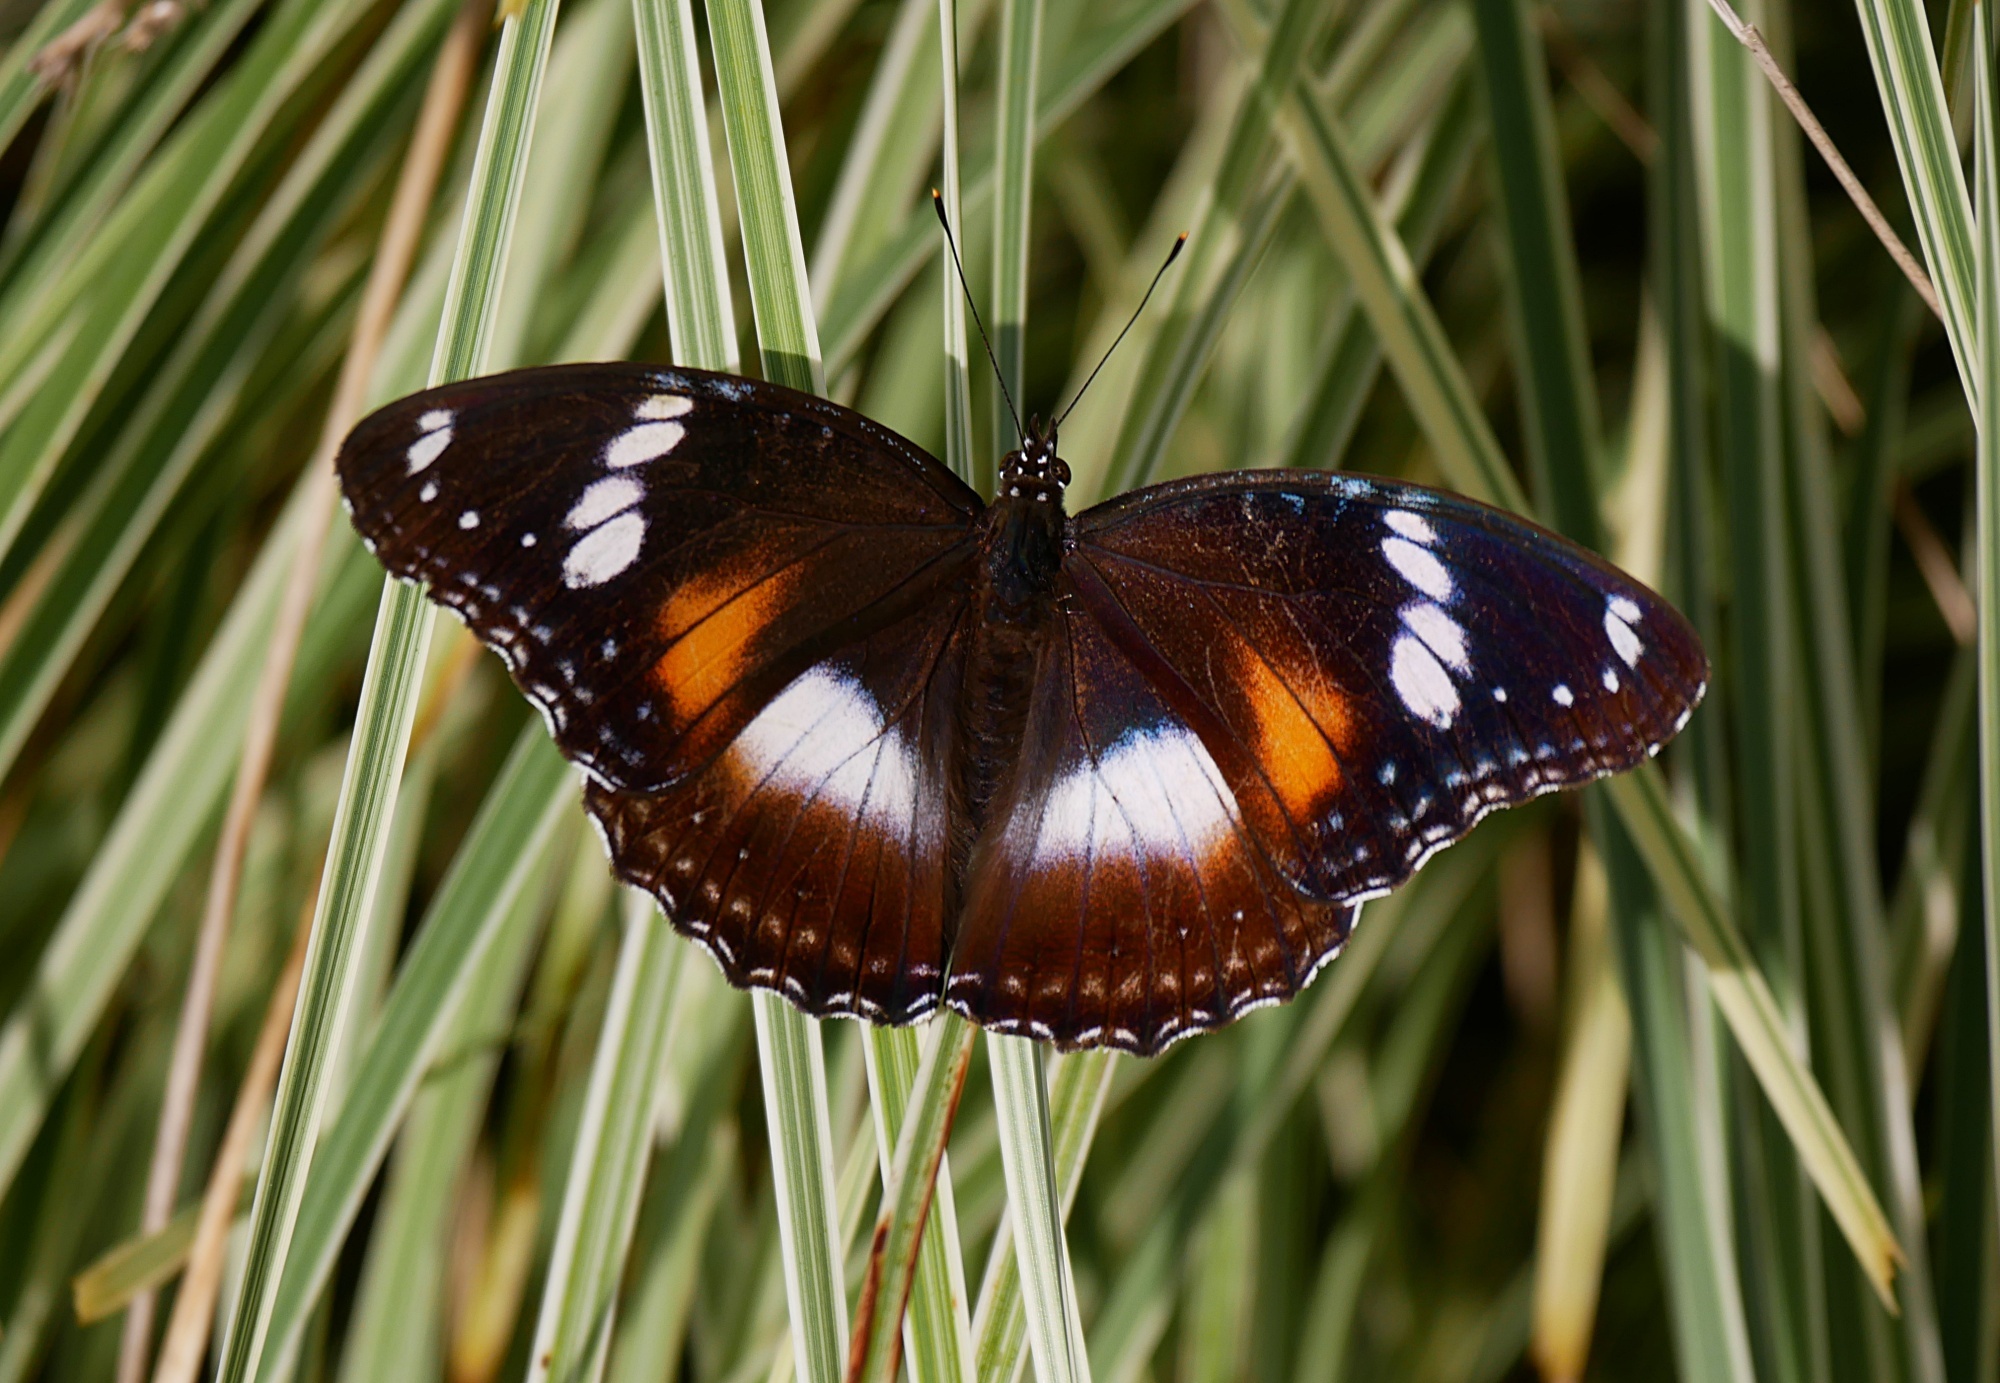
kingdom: Animalia
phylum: Arthropoda
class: Insecta
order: Lepidoptera
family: Nymphalidae
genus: Hypolimnas
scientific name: Hypolimnas bolina
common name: Great eggfly
